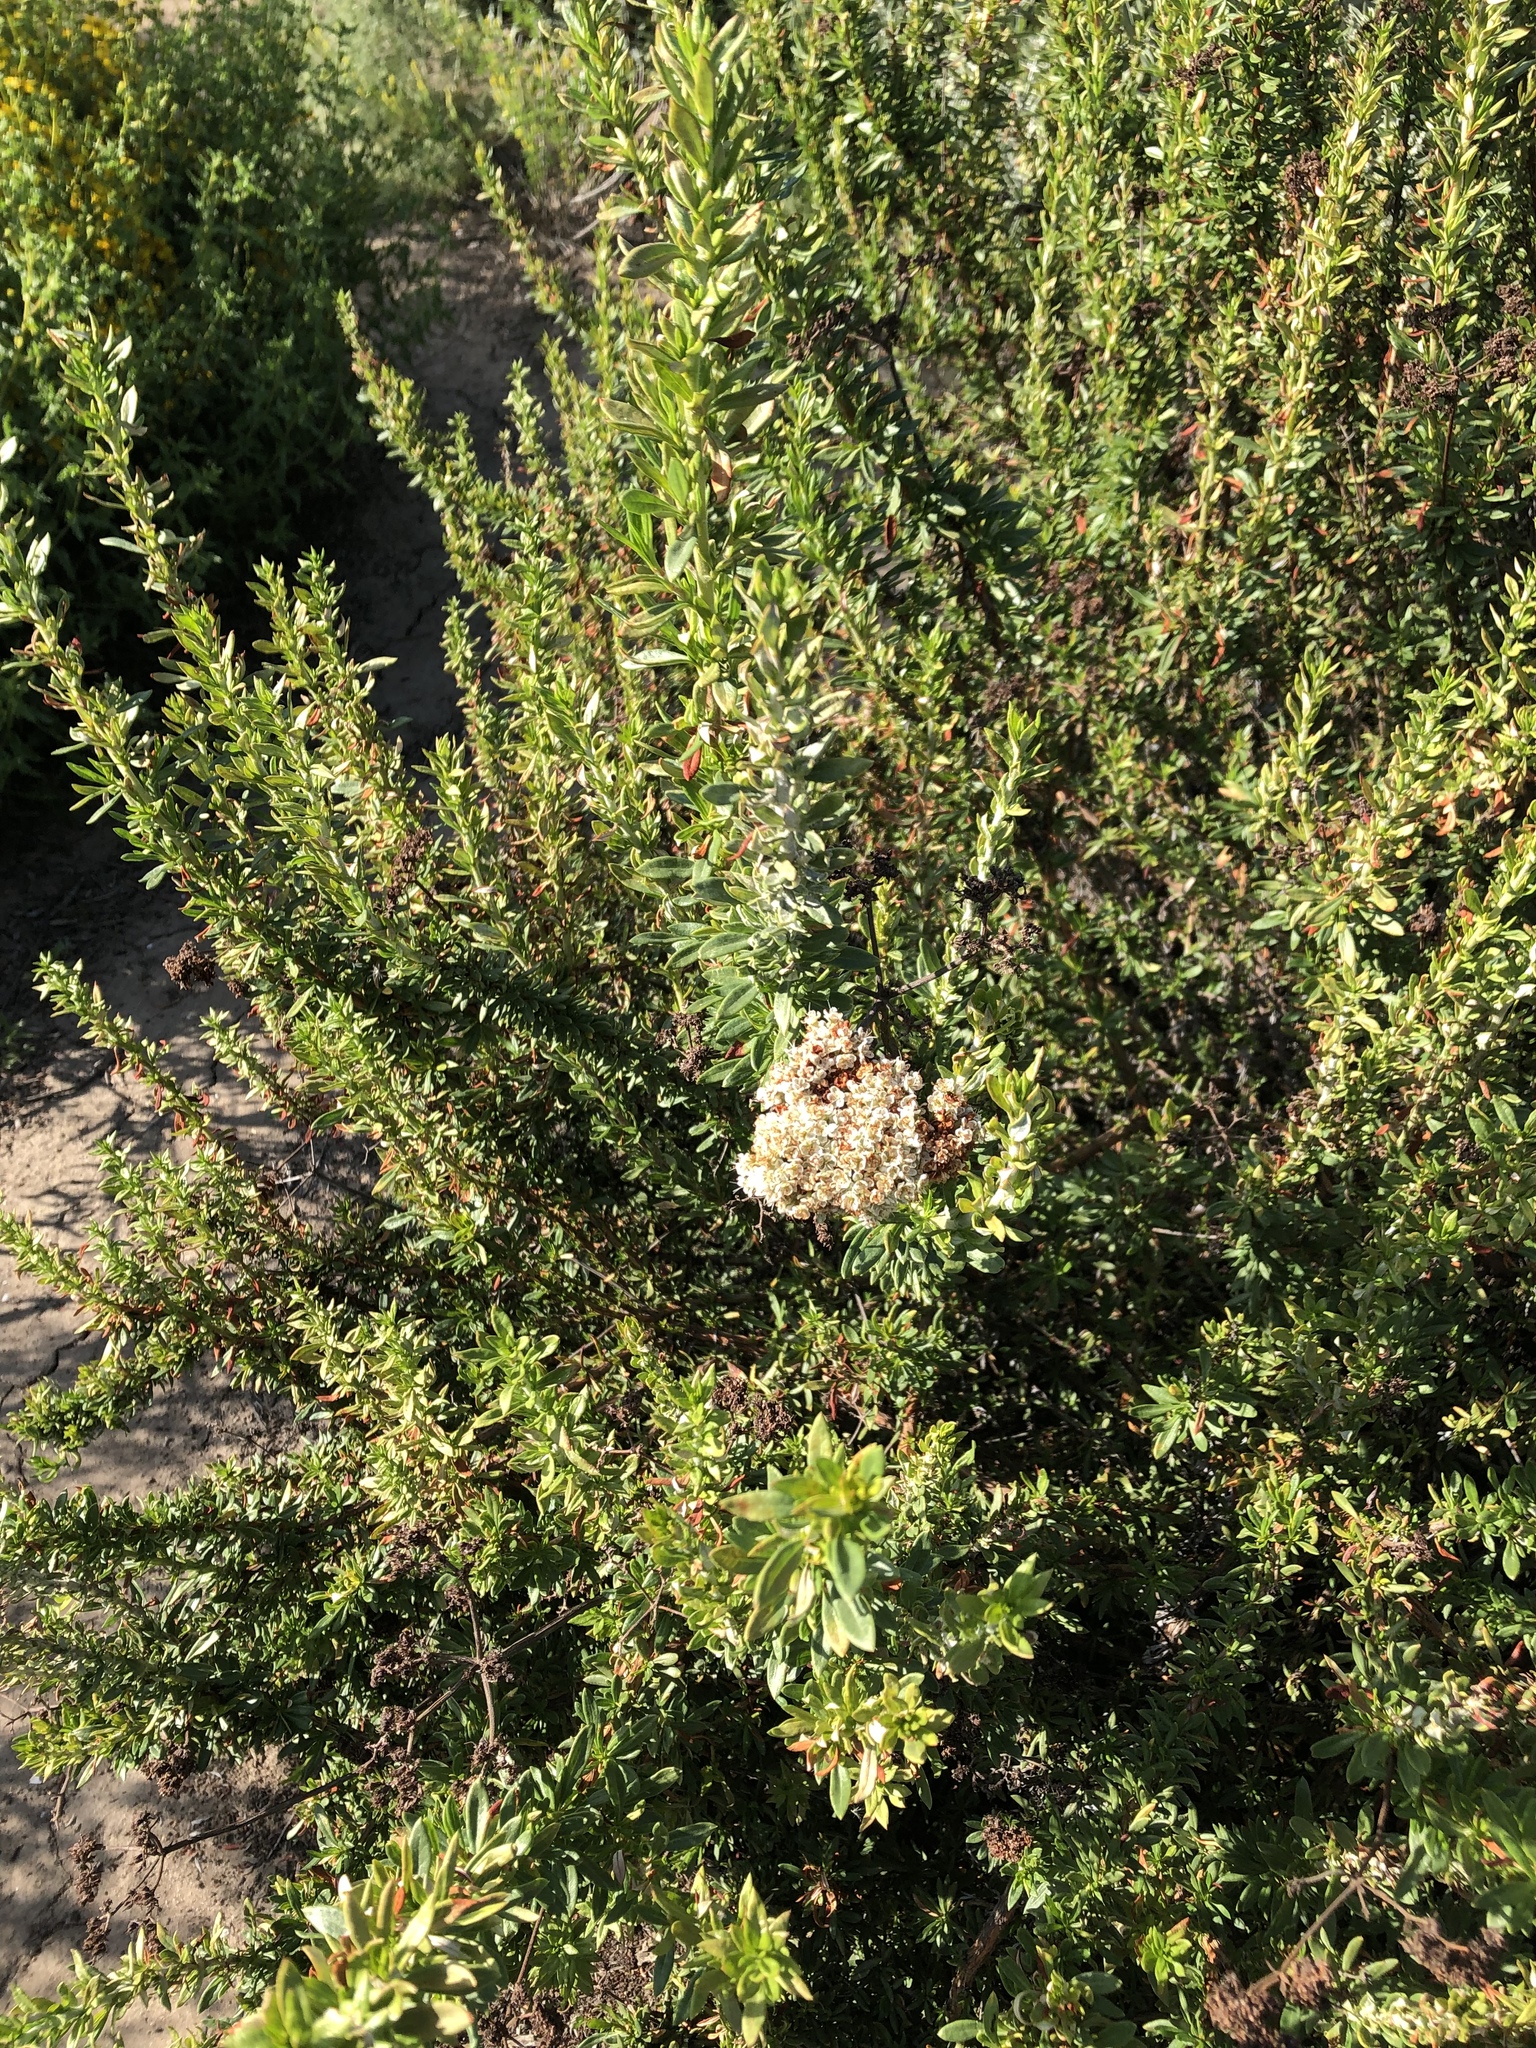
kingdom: Plantae
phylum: Tracheophyta
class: Magnoliopsida
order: Caryophyllales
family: Polygonaceae
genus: Eriogonum
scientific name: Eriogonum fasciculatum
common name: California wild buckwheat
